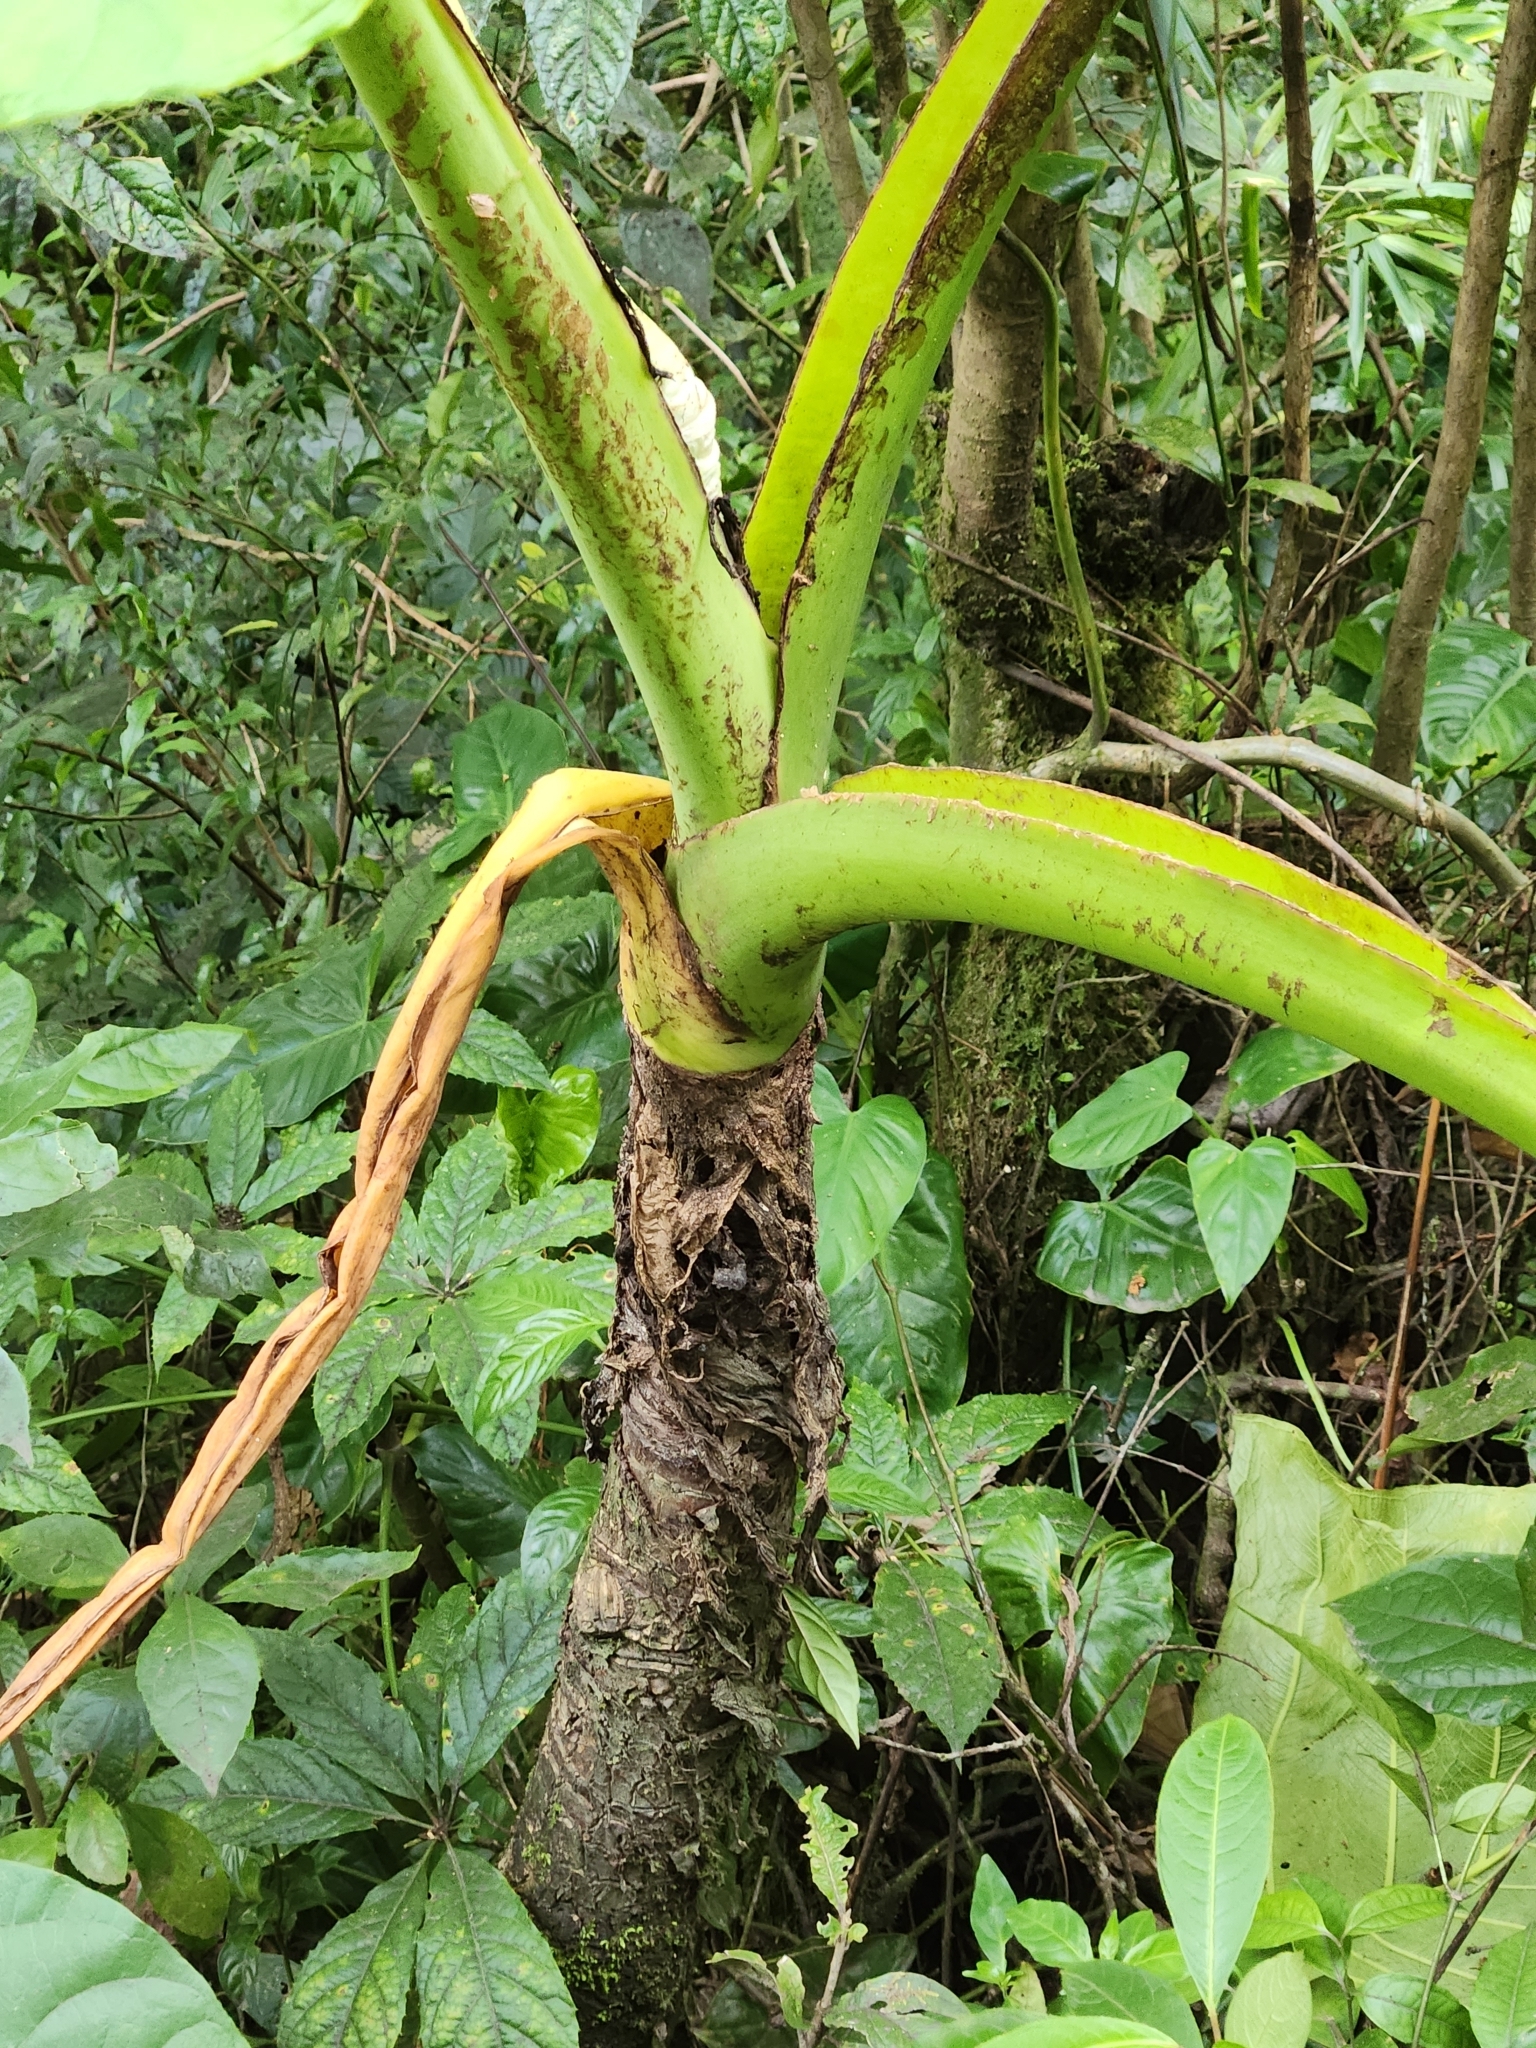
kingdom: Plantae
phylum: Tracheophyta
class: Liliopsida
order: Alismatales
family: Araceae
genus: Xanthosoma
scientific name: Xanthosoma undipes
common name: Tall elephant's ear
